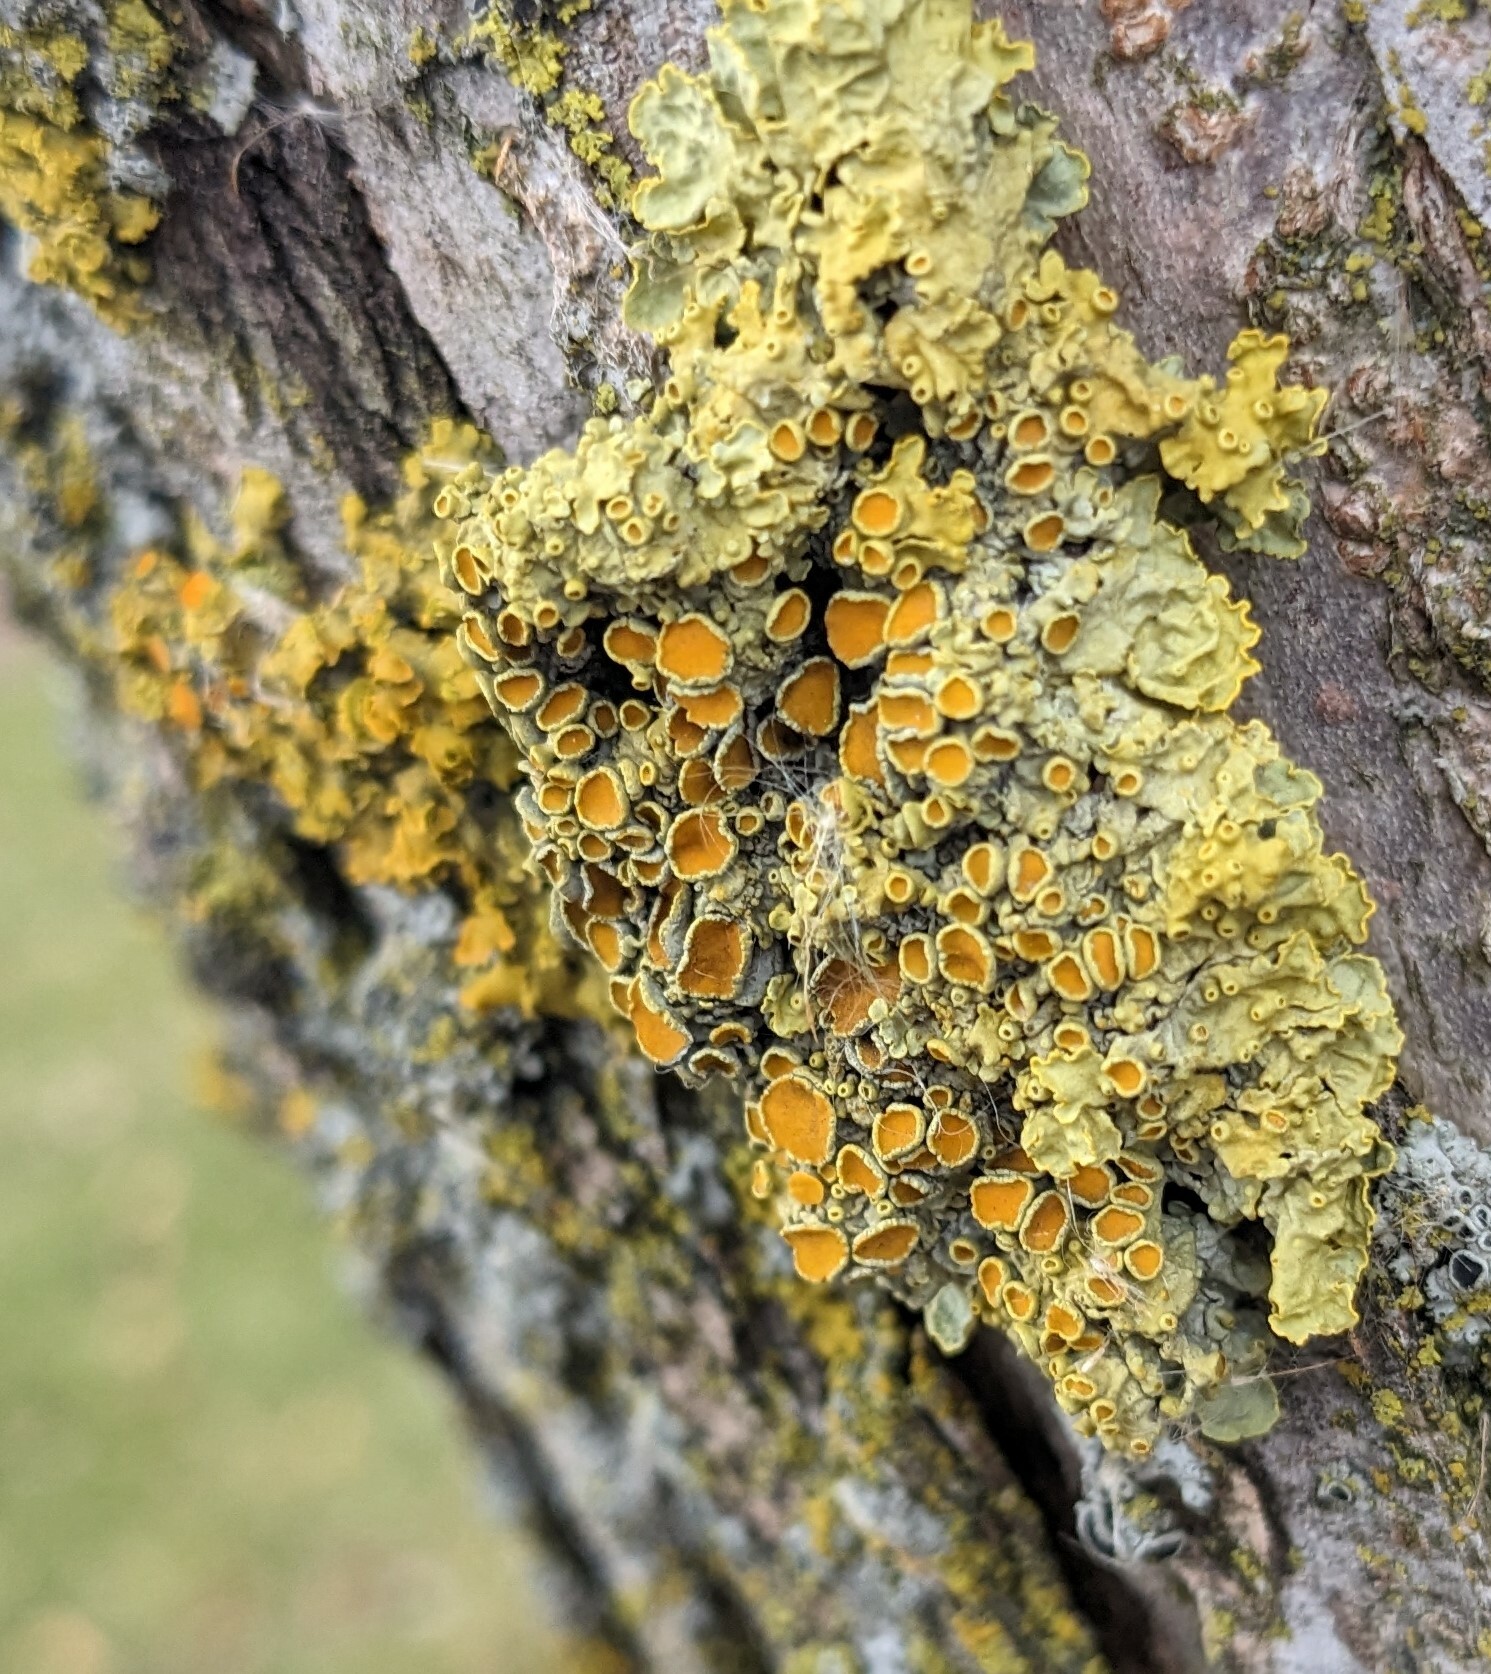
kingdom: Fungi
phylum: Ascomycota
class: Lecanoromycetes
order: Teloschistales
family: Teloschistaceae
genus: Xanthoria
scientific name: Xanthoria parietina
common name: Common orange lichen
